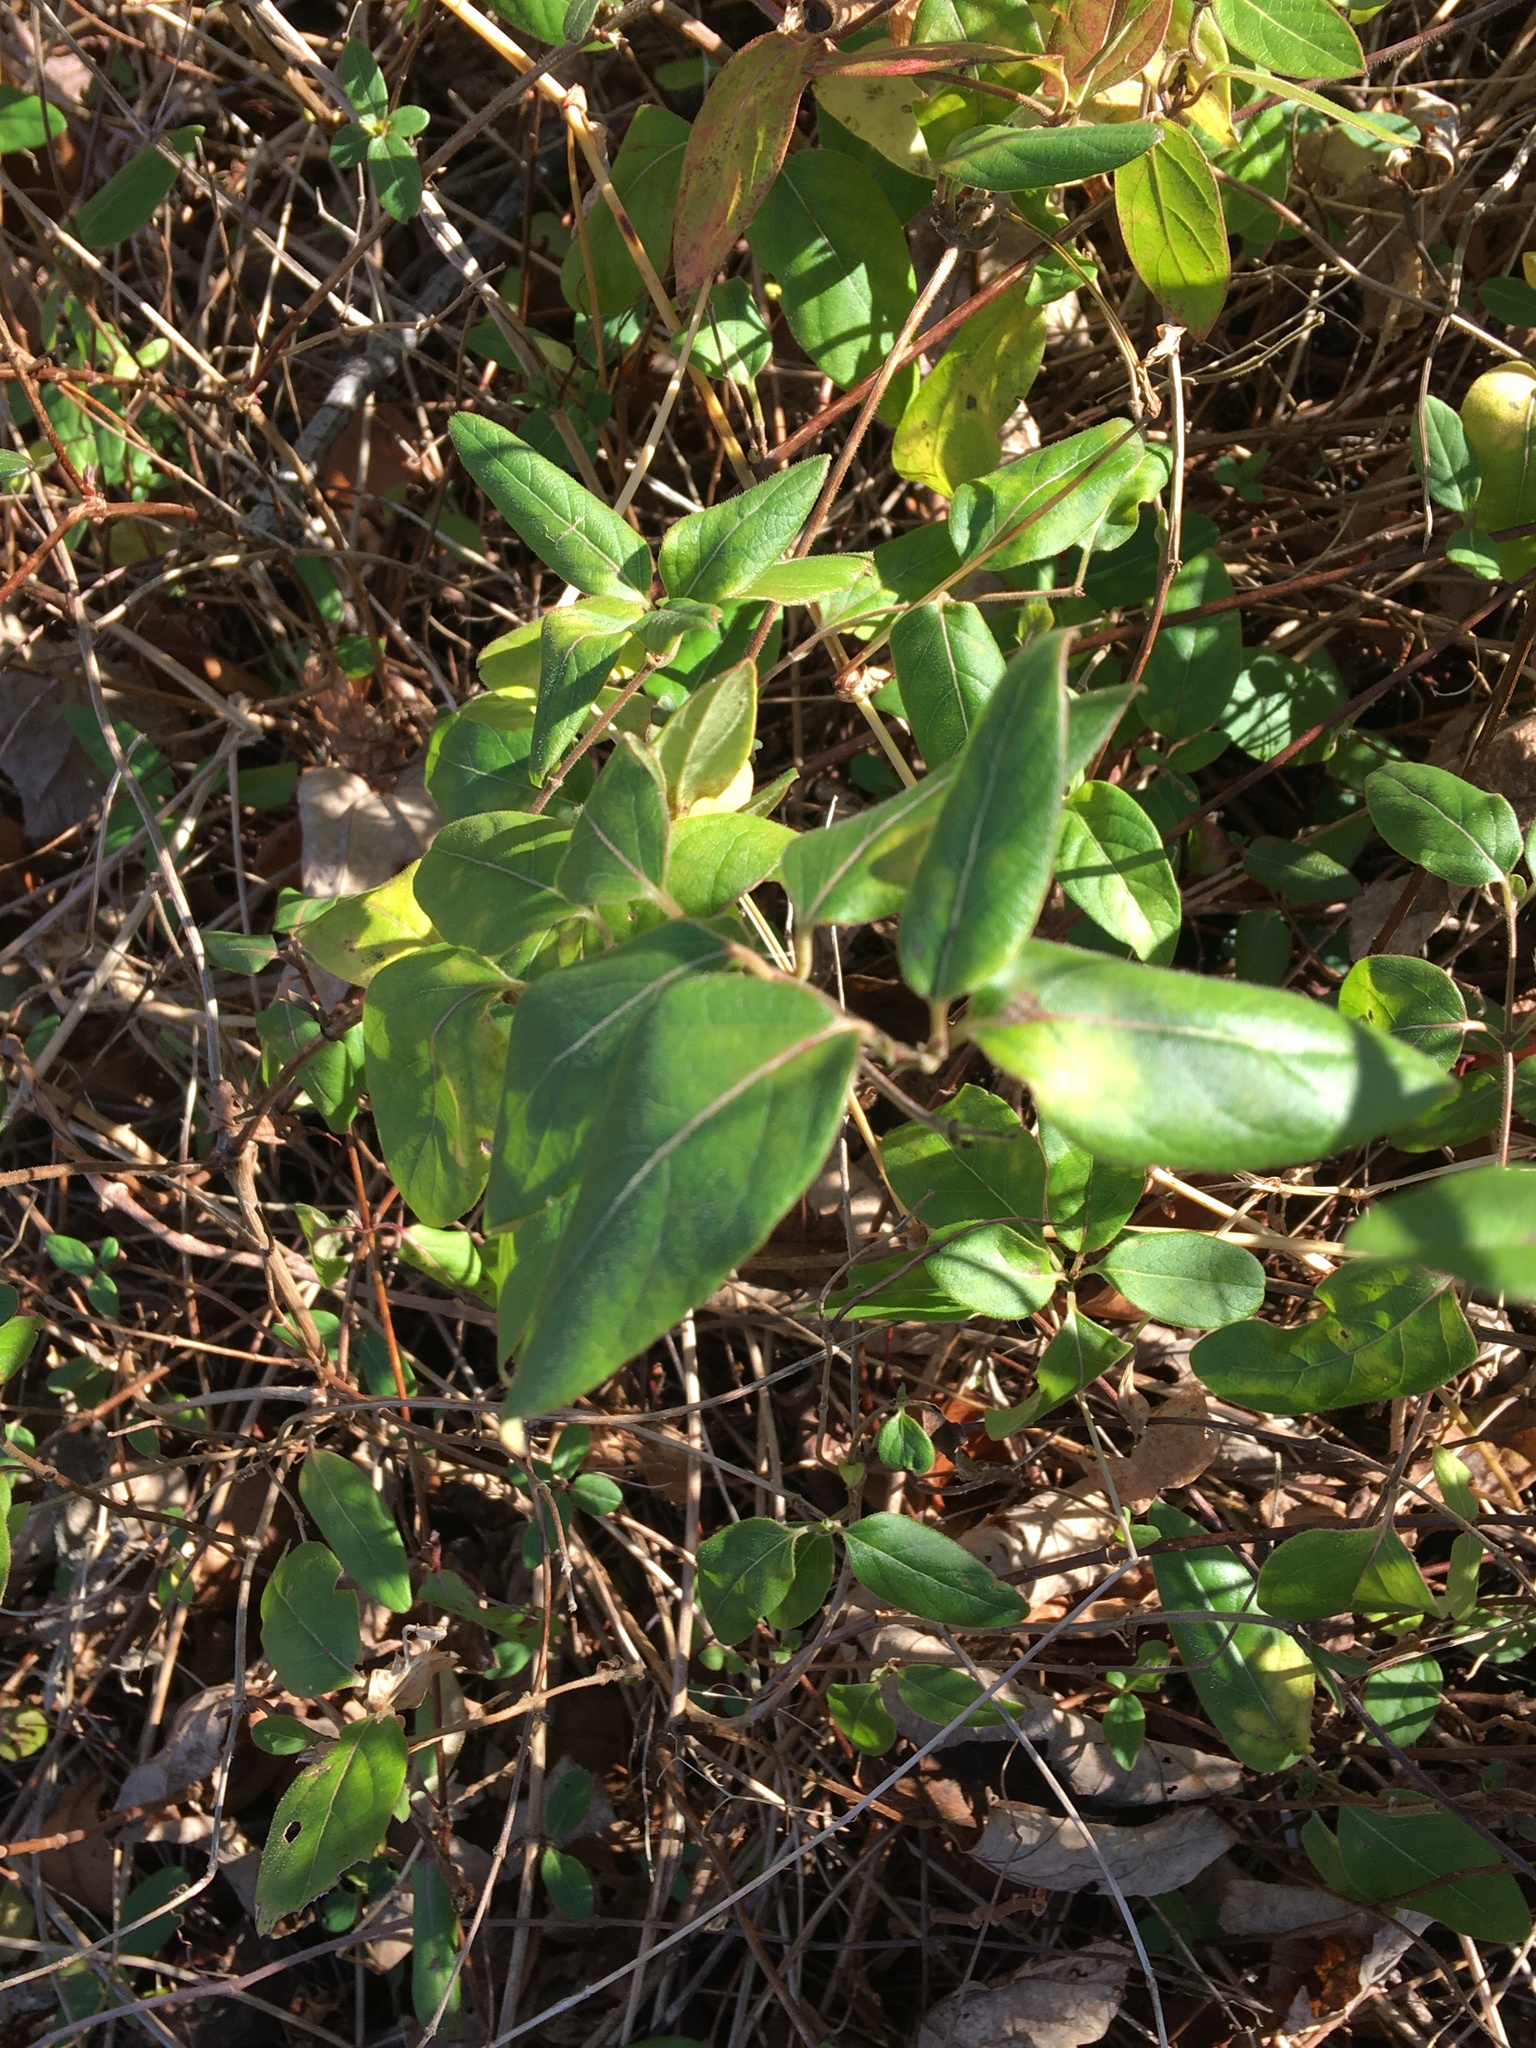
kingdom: Plantae
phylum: Tracheophyta
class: Magnoliopsida
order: Dipsacales
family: Caprifoliaceae
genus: Lonicera
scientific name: Lonicera japonica
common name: Japanese honeysuckle
